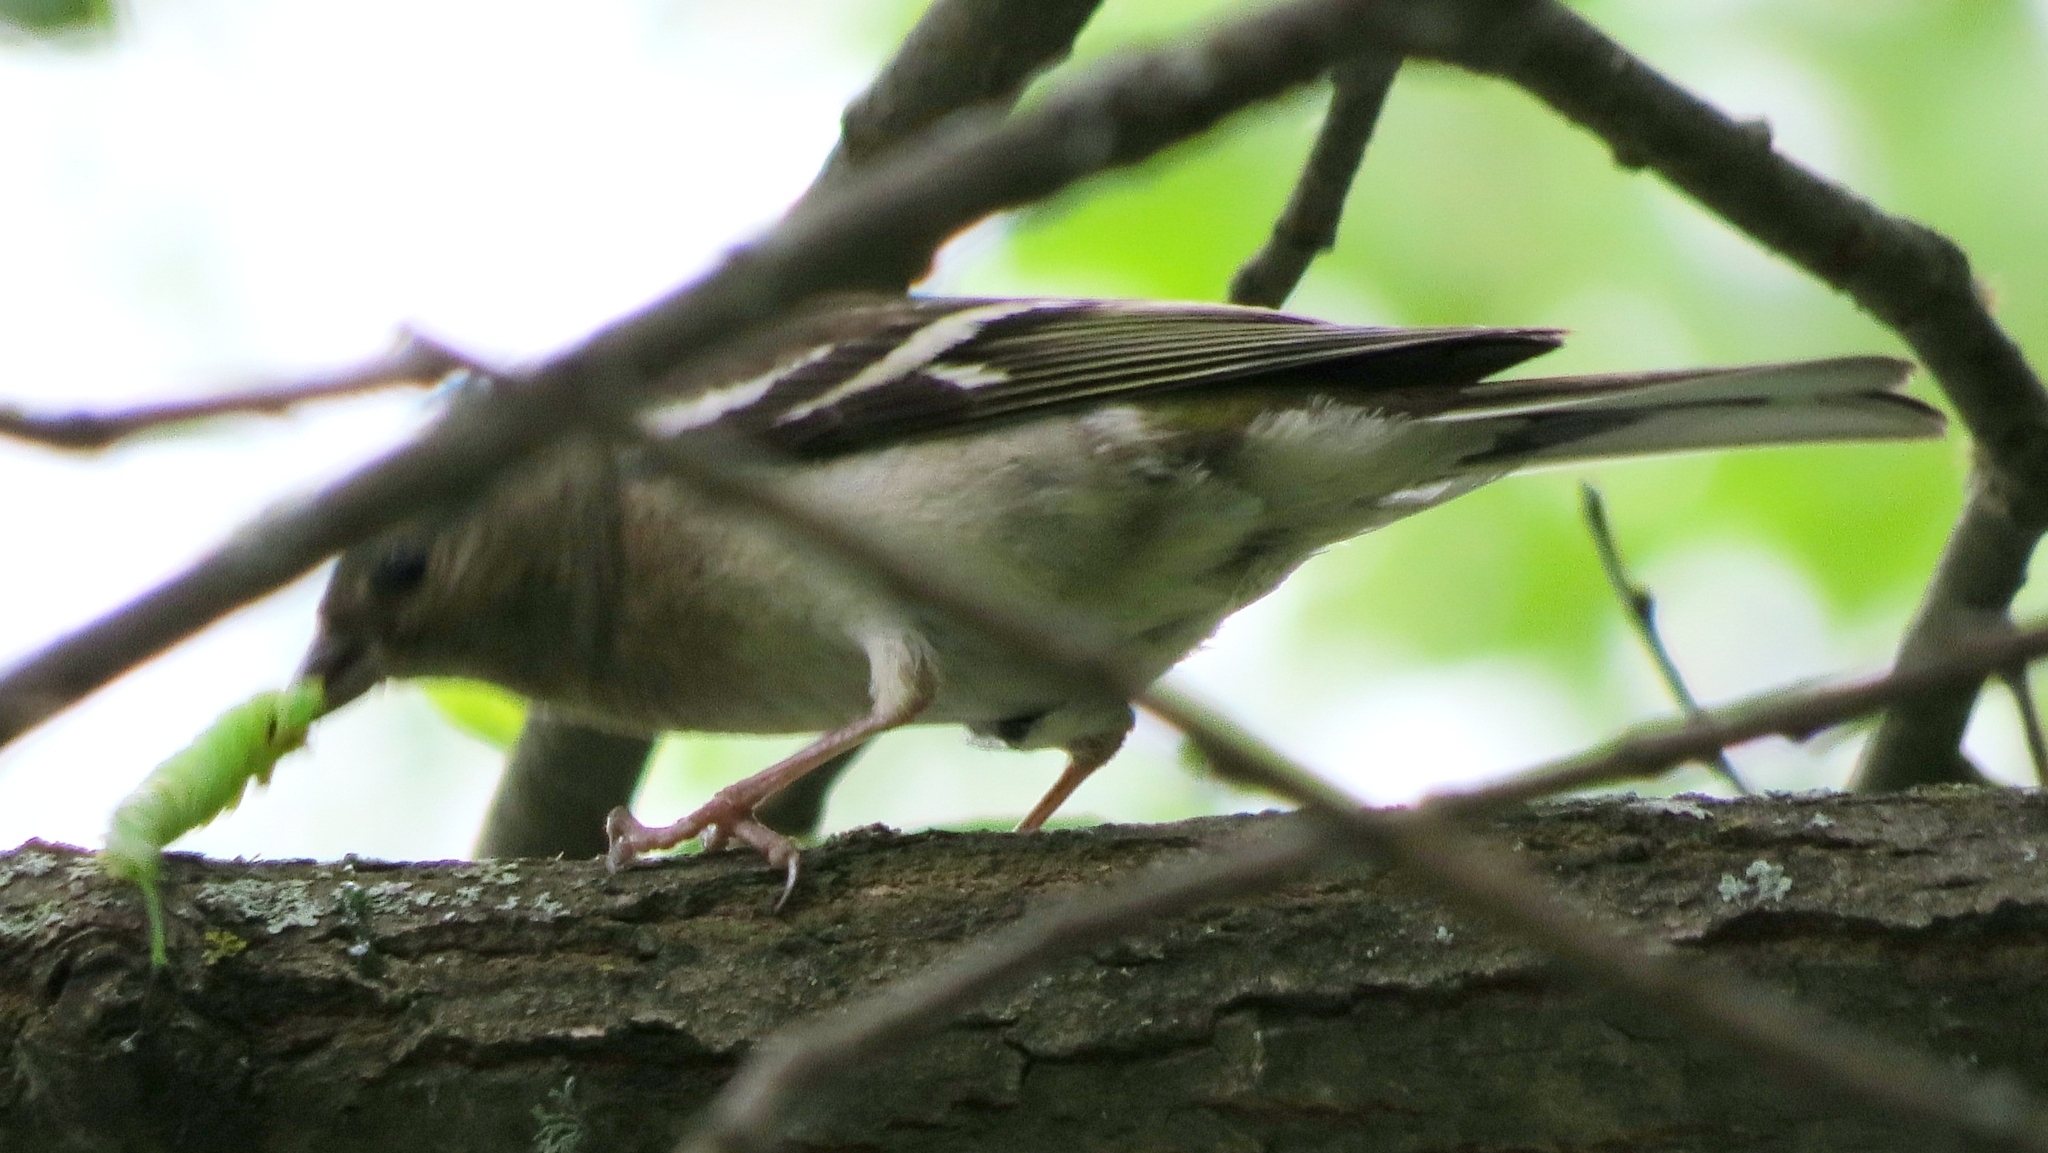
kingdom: Animalia
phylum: Chordata
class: Aves
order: Passeriformes
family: Fringillidae
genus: Fringilla
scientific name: Fringilla coelebs
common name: Common chaffinch
